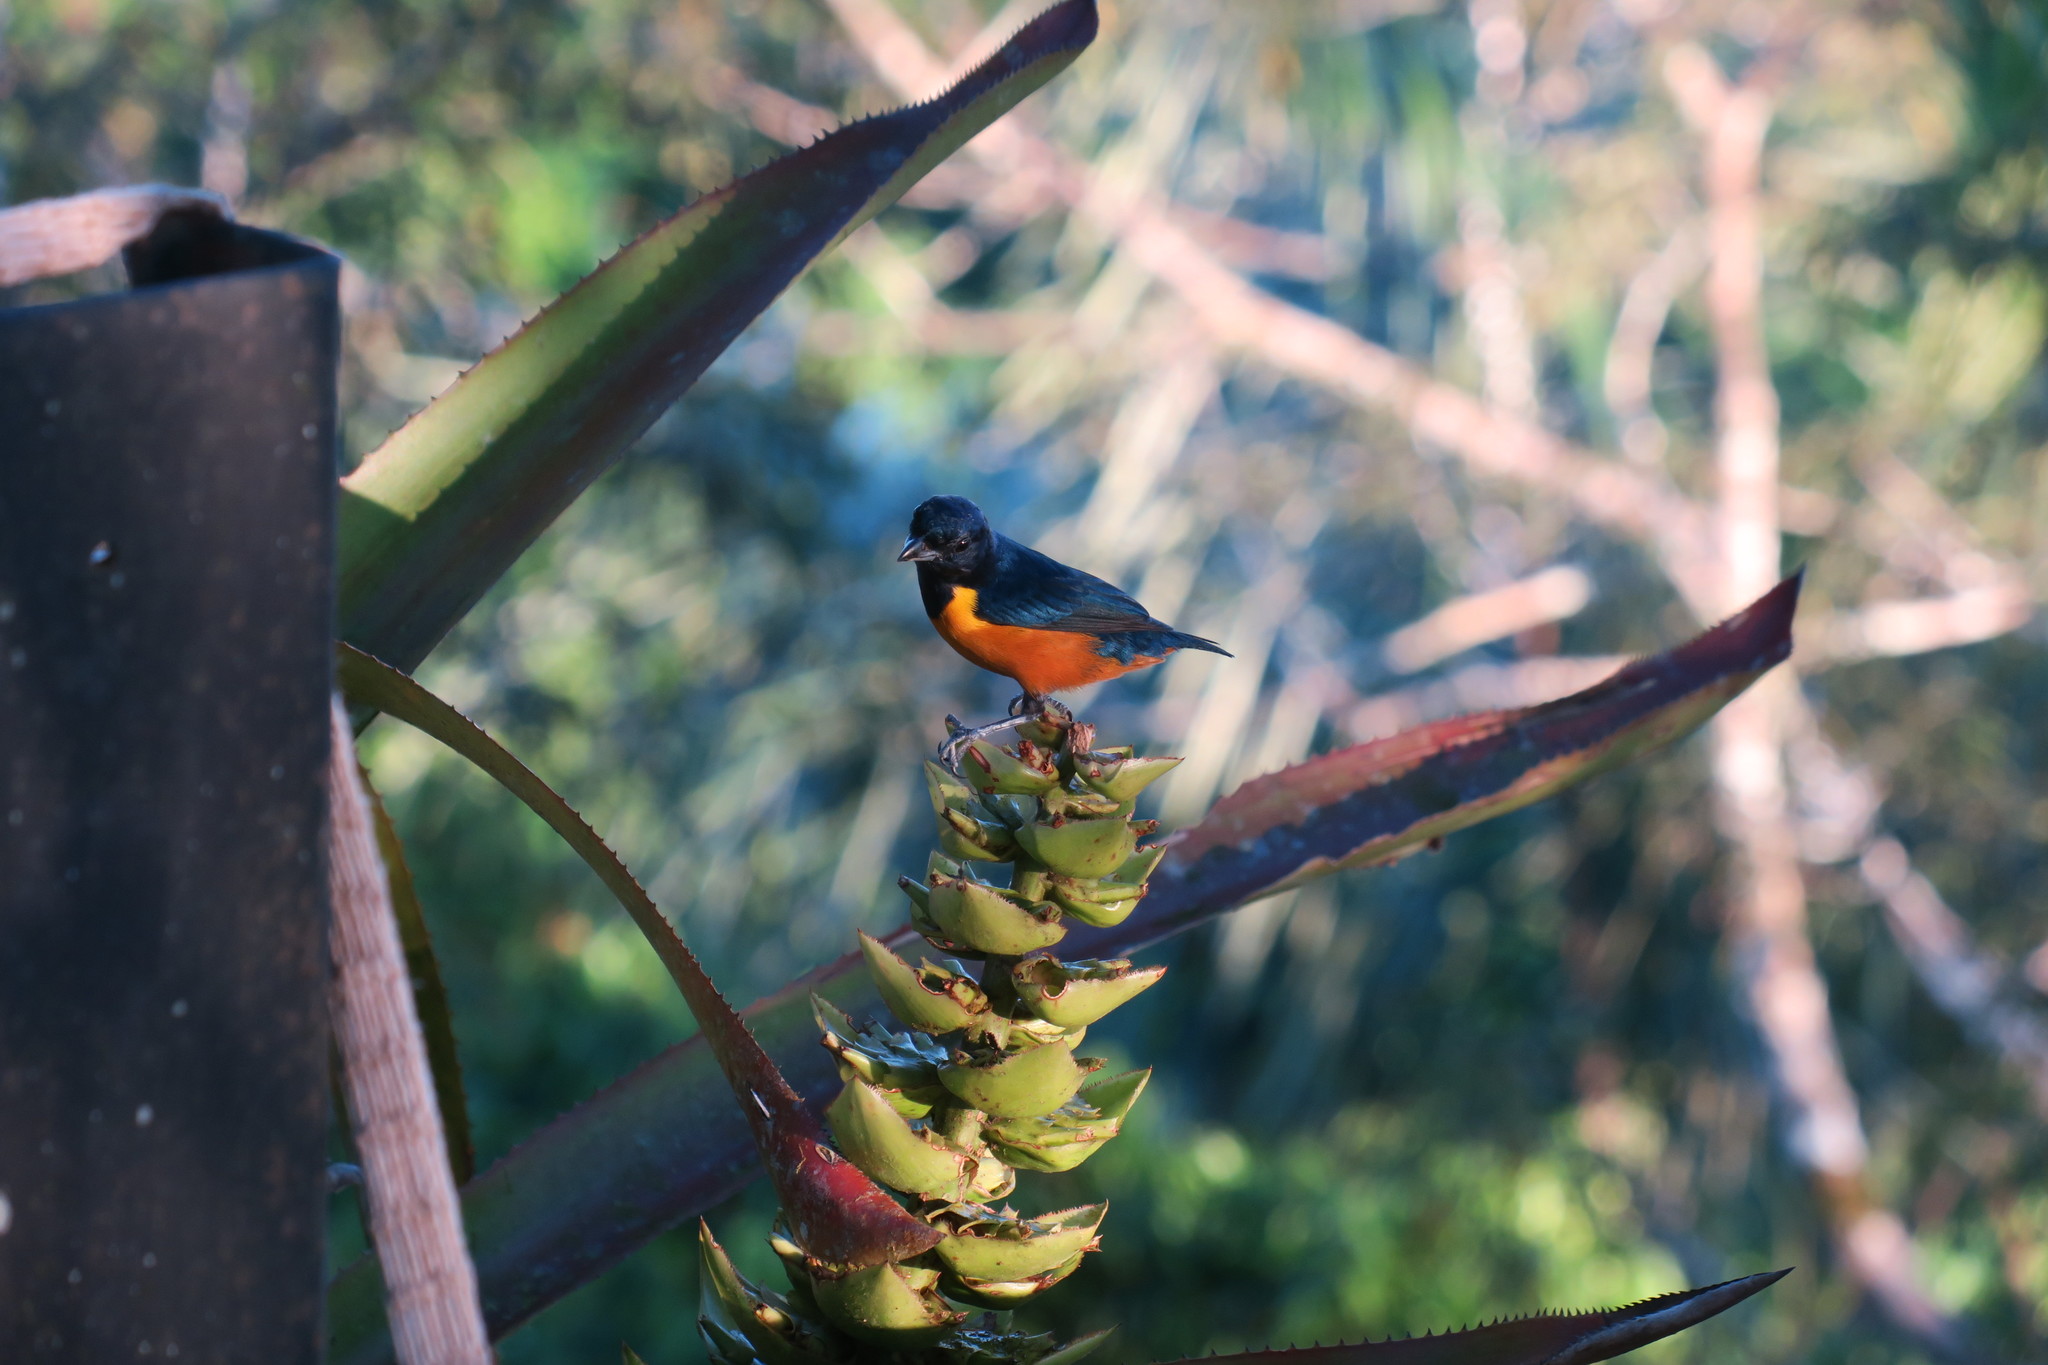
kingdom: Animalia
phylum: Chordata
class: Aves
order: Passeriformes
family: Fringillidae
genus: Euphonia
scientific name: Euphonia rufiventris
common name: Rufous-bellied euphonia
